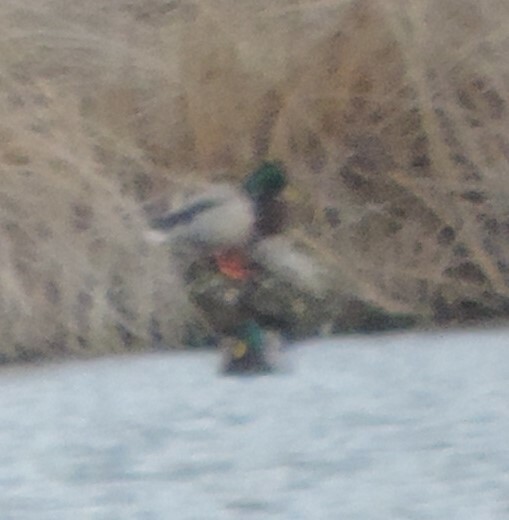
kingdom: Animalia
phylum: Chordata
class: Aves
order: Anseriformes
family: Anatidae
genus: Anas
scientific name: Anas platyrhynchos
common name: Mallard
